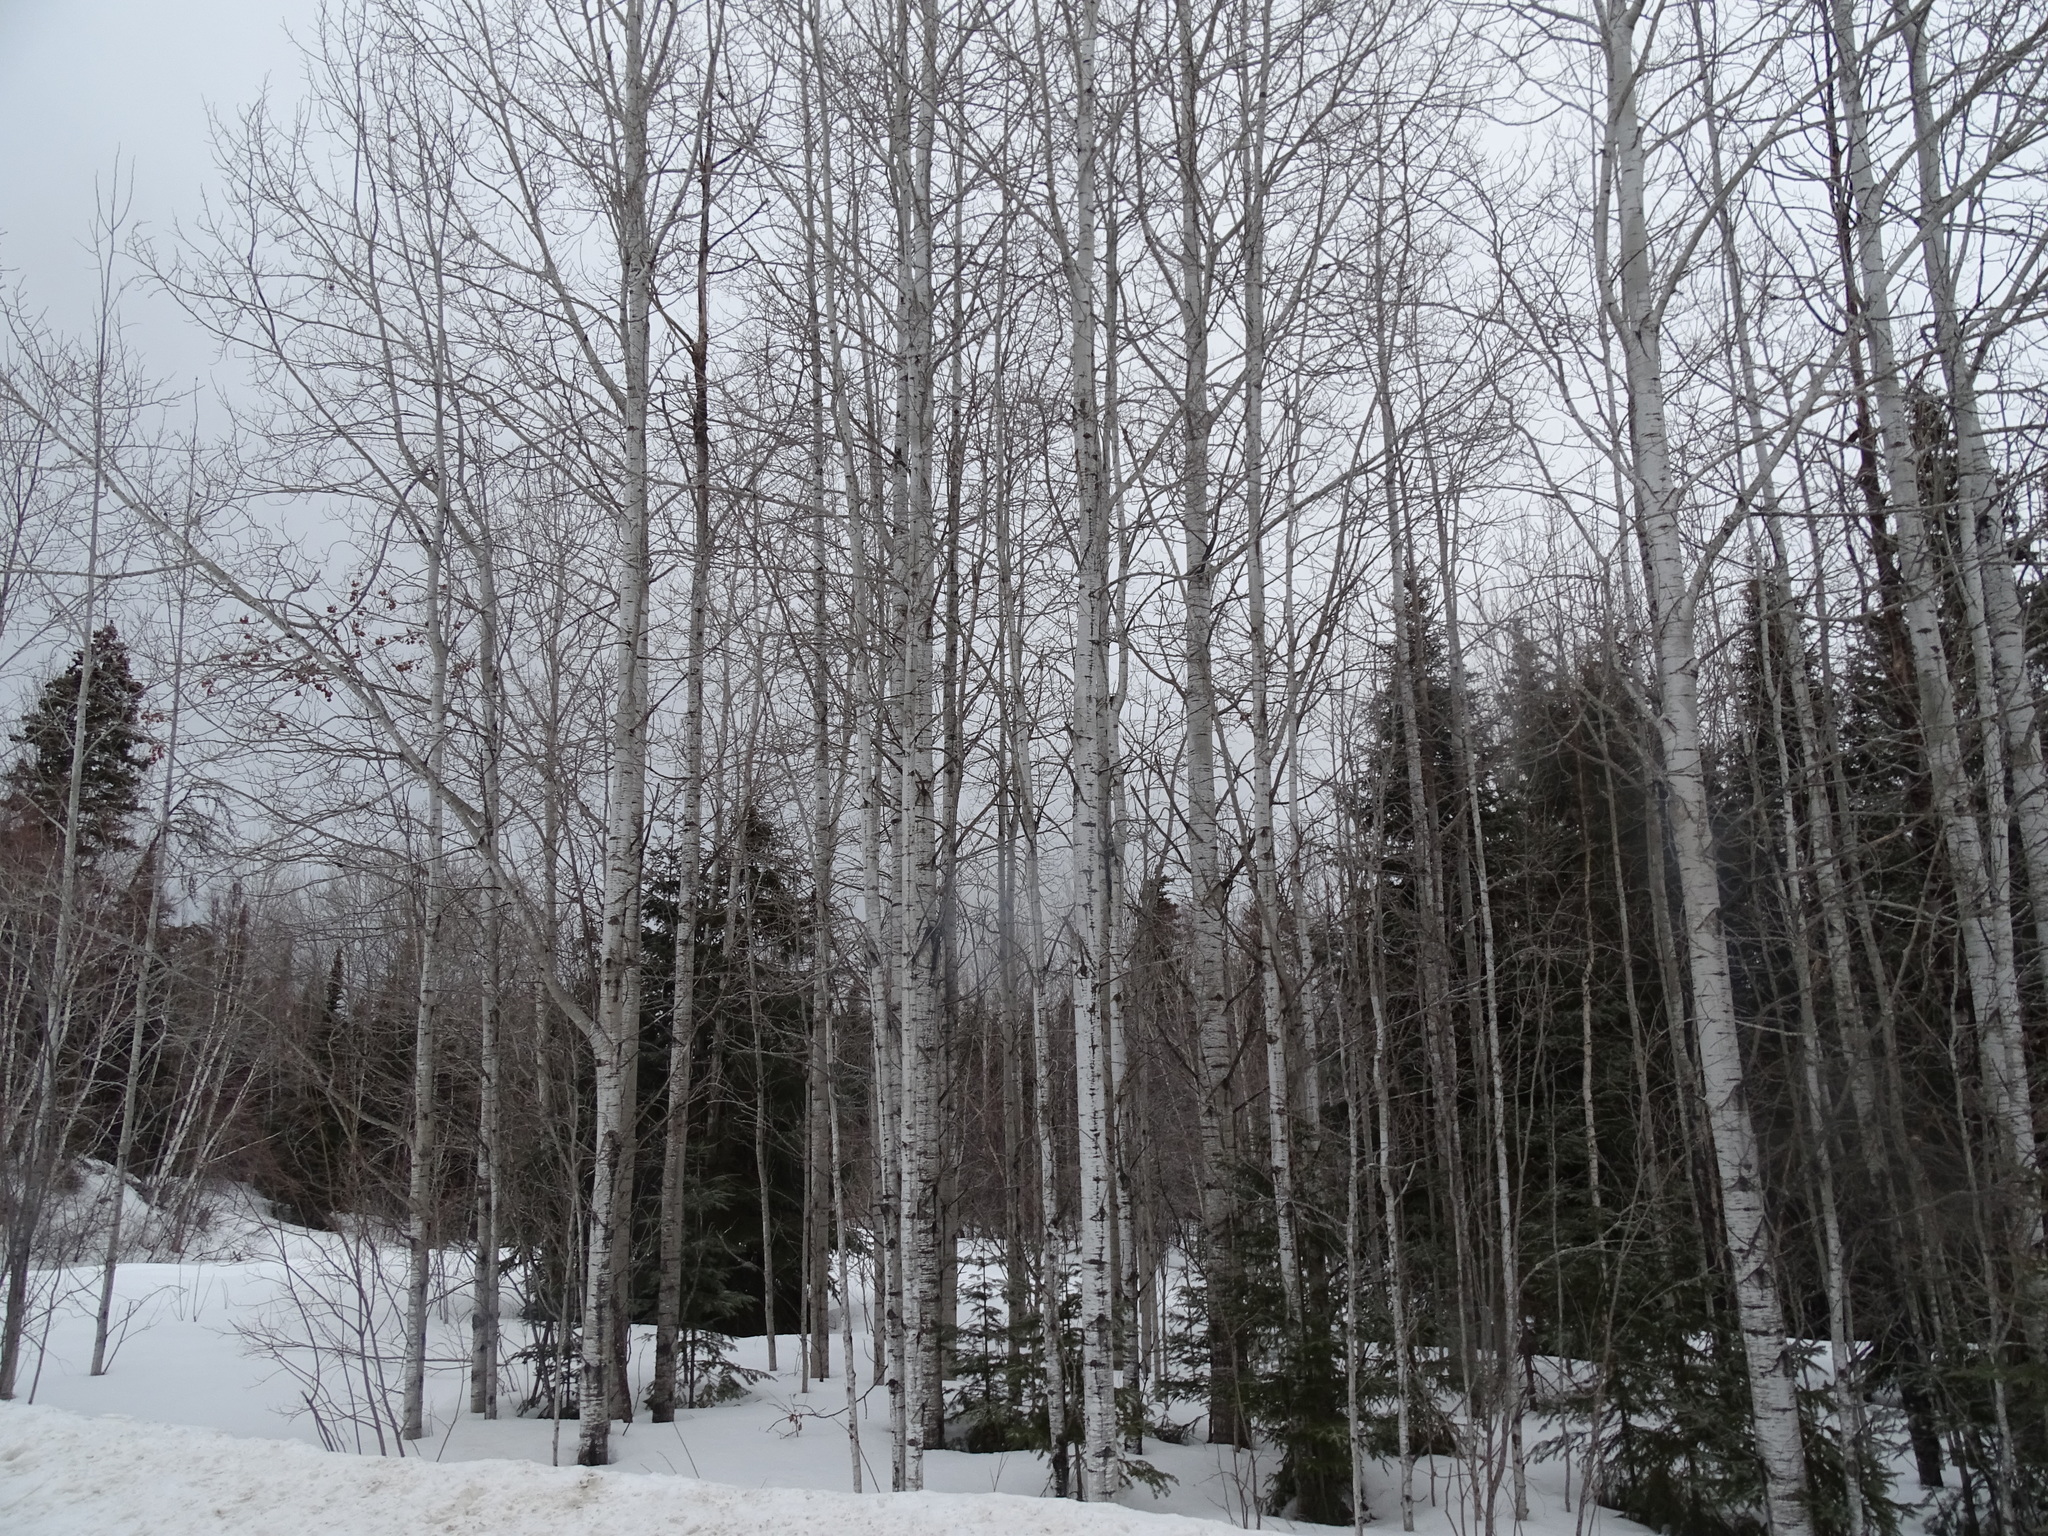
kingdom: Plantae
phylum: Tracheophyta
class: Magnoliopsida
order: Malpighiales
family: Salicaceae
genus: Populus
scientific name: Populus tremuloides
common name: Quaking aspen
